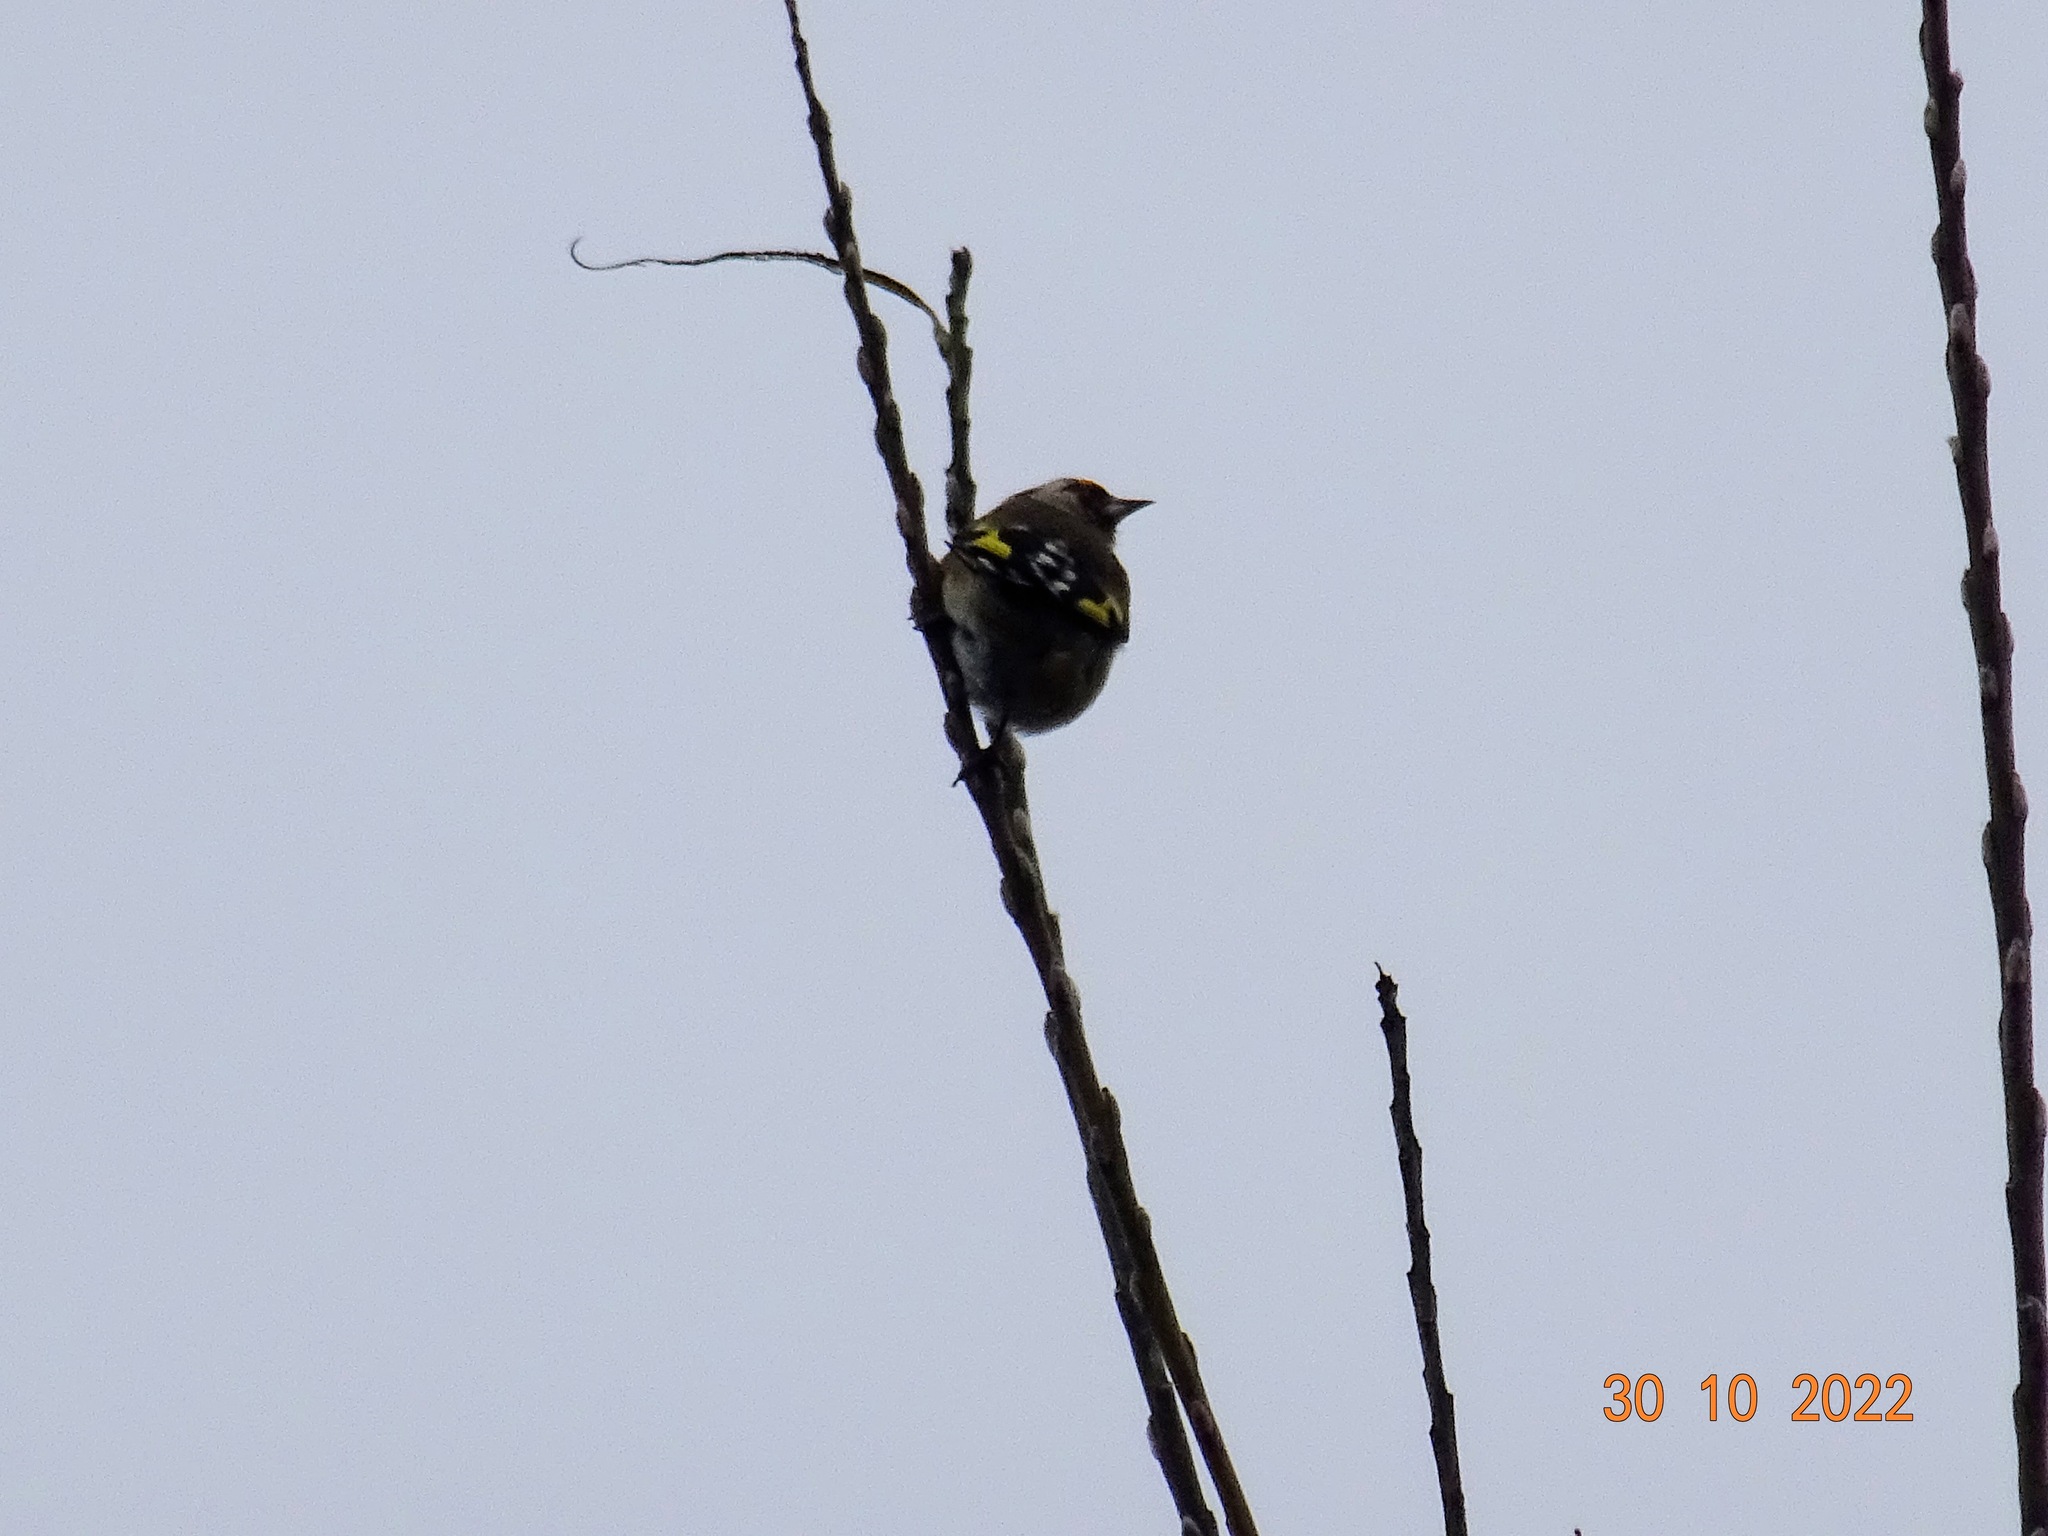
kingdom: Animalia
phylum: Chordata
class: Aves
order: Passeriformes
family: Fringillidae
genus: Carduelis
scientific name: Carduelis carduelis
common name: European goldfinch
